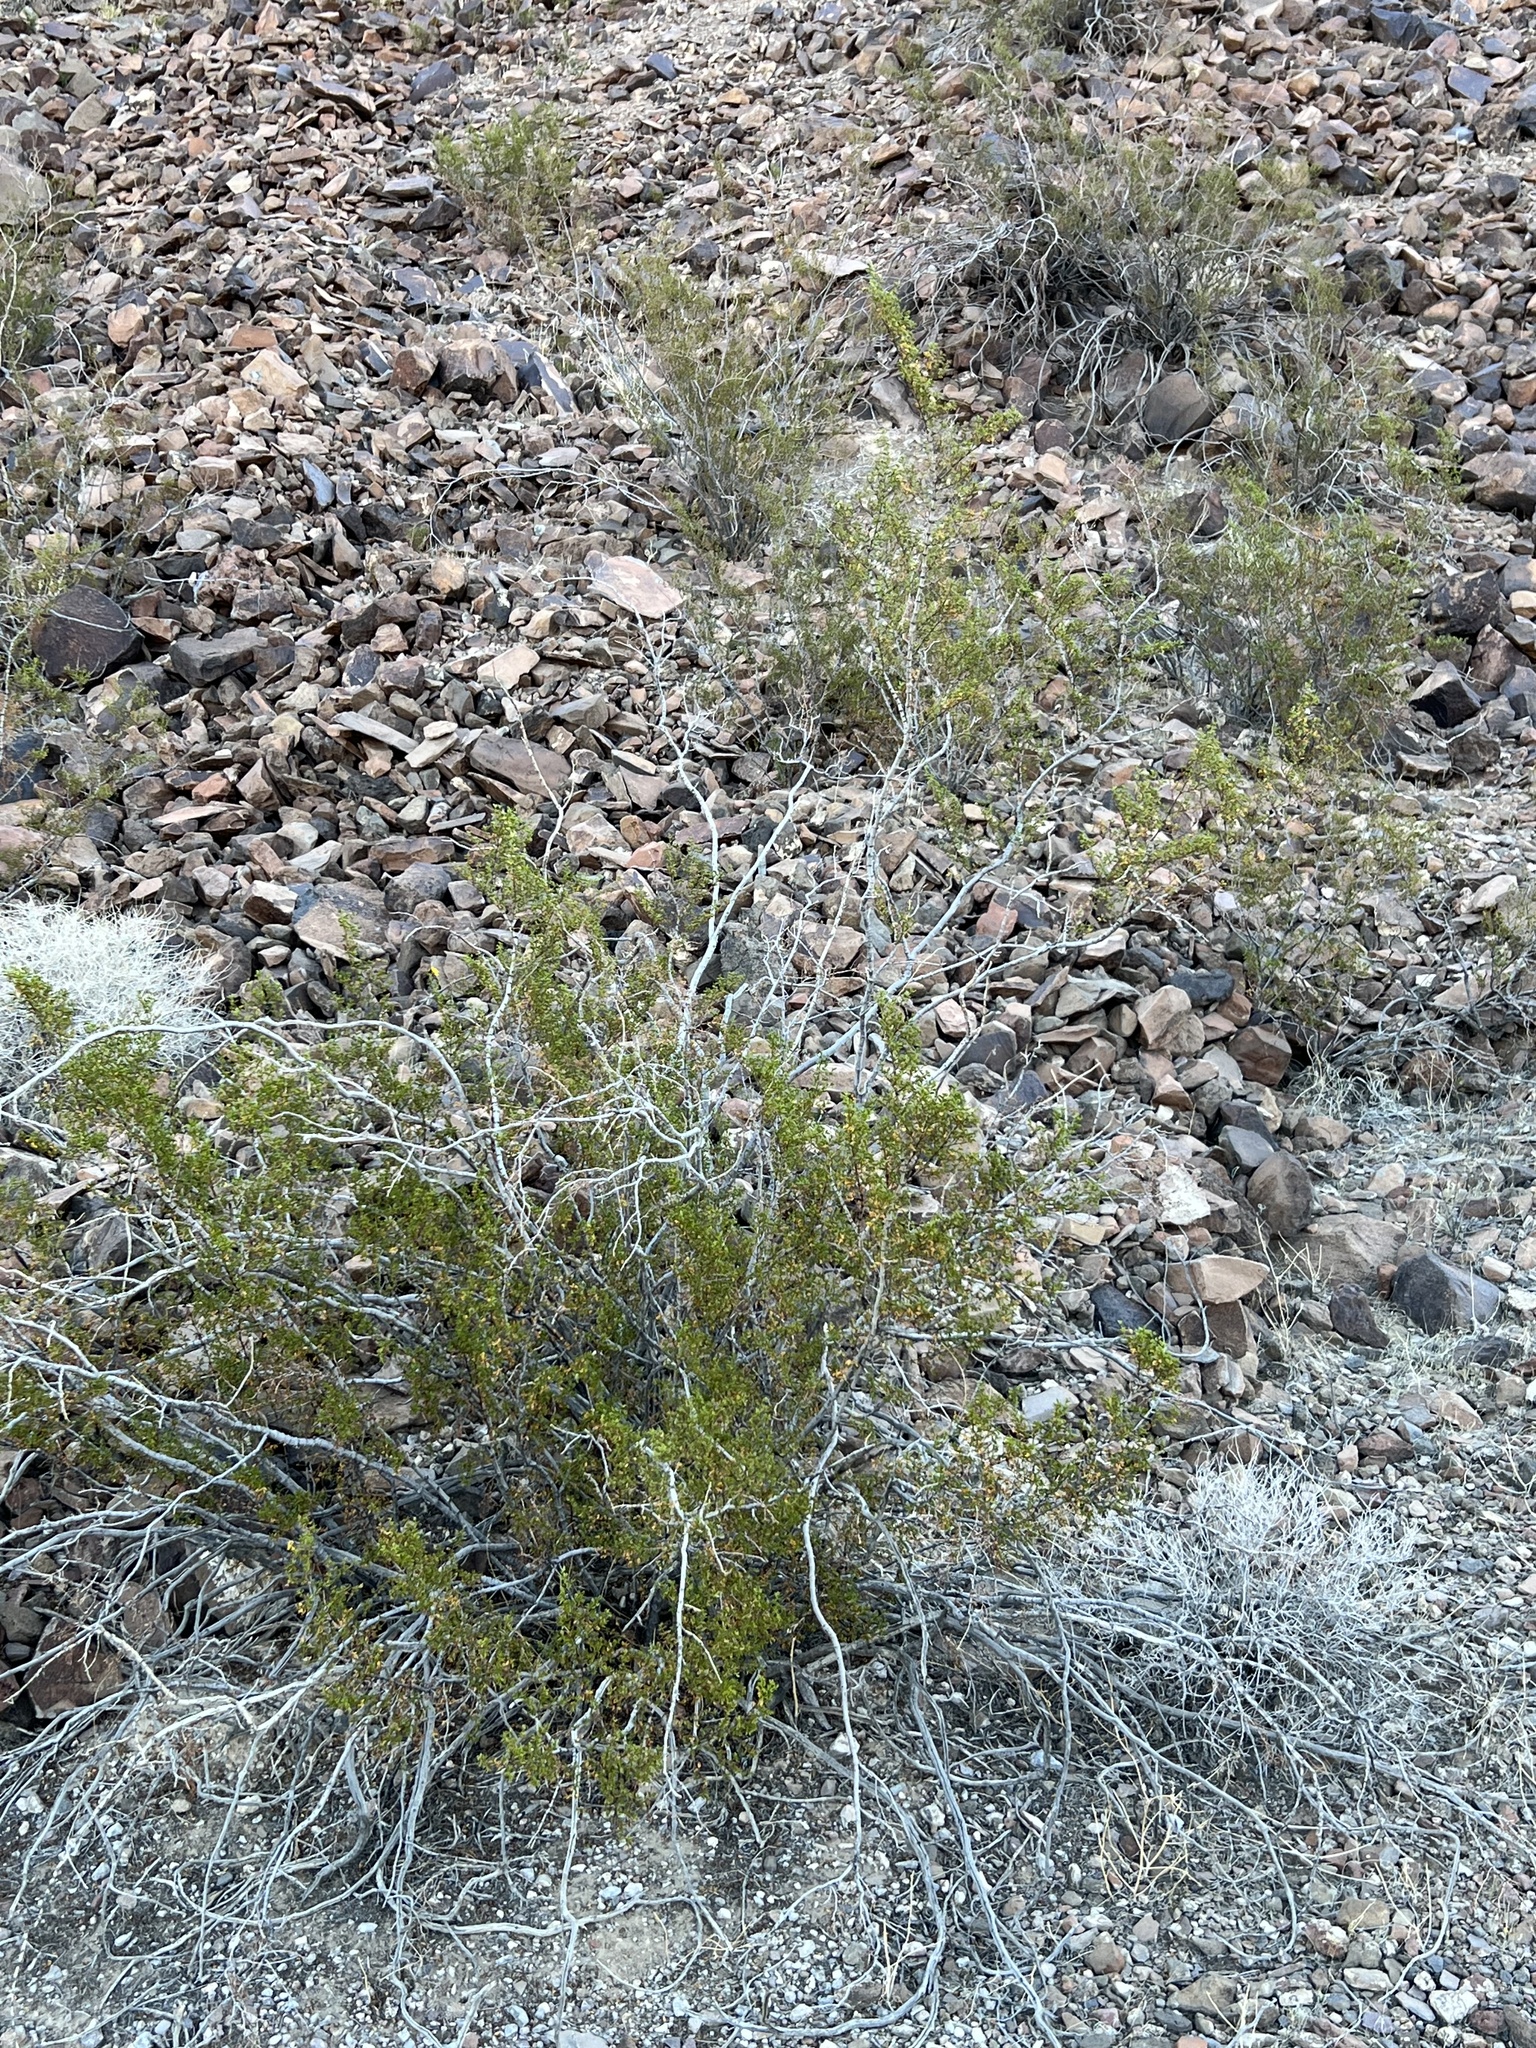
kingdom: Plantae
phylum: Tracheophyta
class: Magnoliopsida
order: Zygophyllales
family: Zygophyllaceae
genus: Larrea
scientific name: Larrea tridentata
